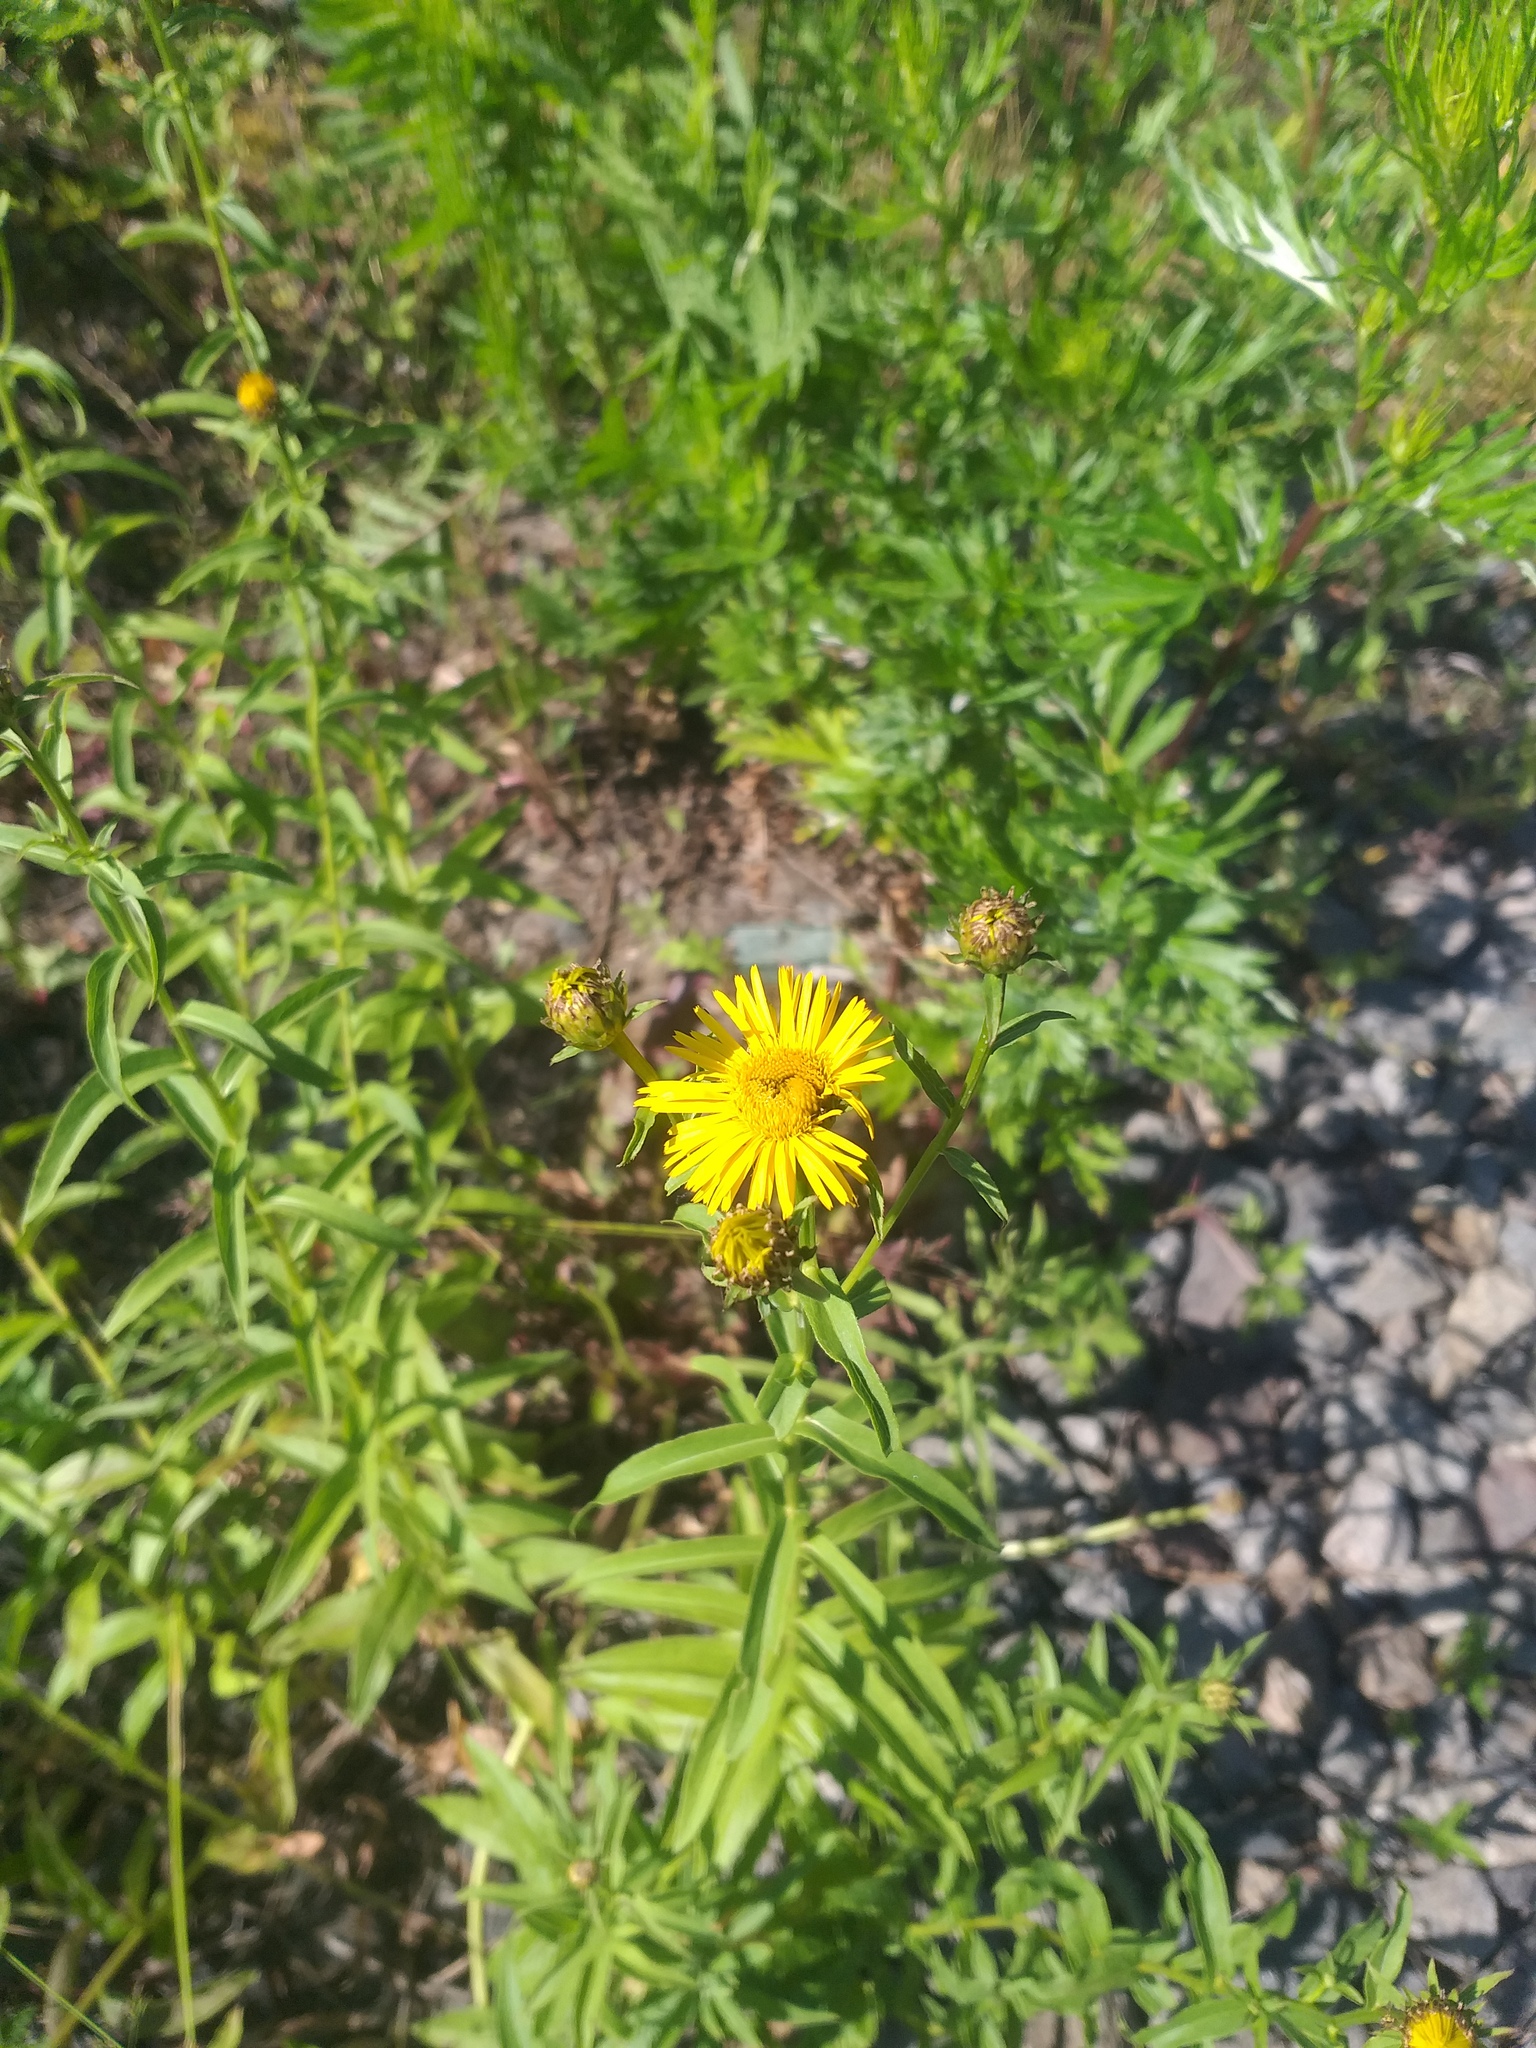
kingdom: Plantae
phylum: Tracheophyta
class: Magnoliopsida
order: Asterales
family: Asteraceae
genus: Pentanema
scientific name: Pentanema salicinum
